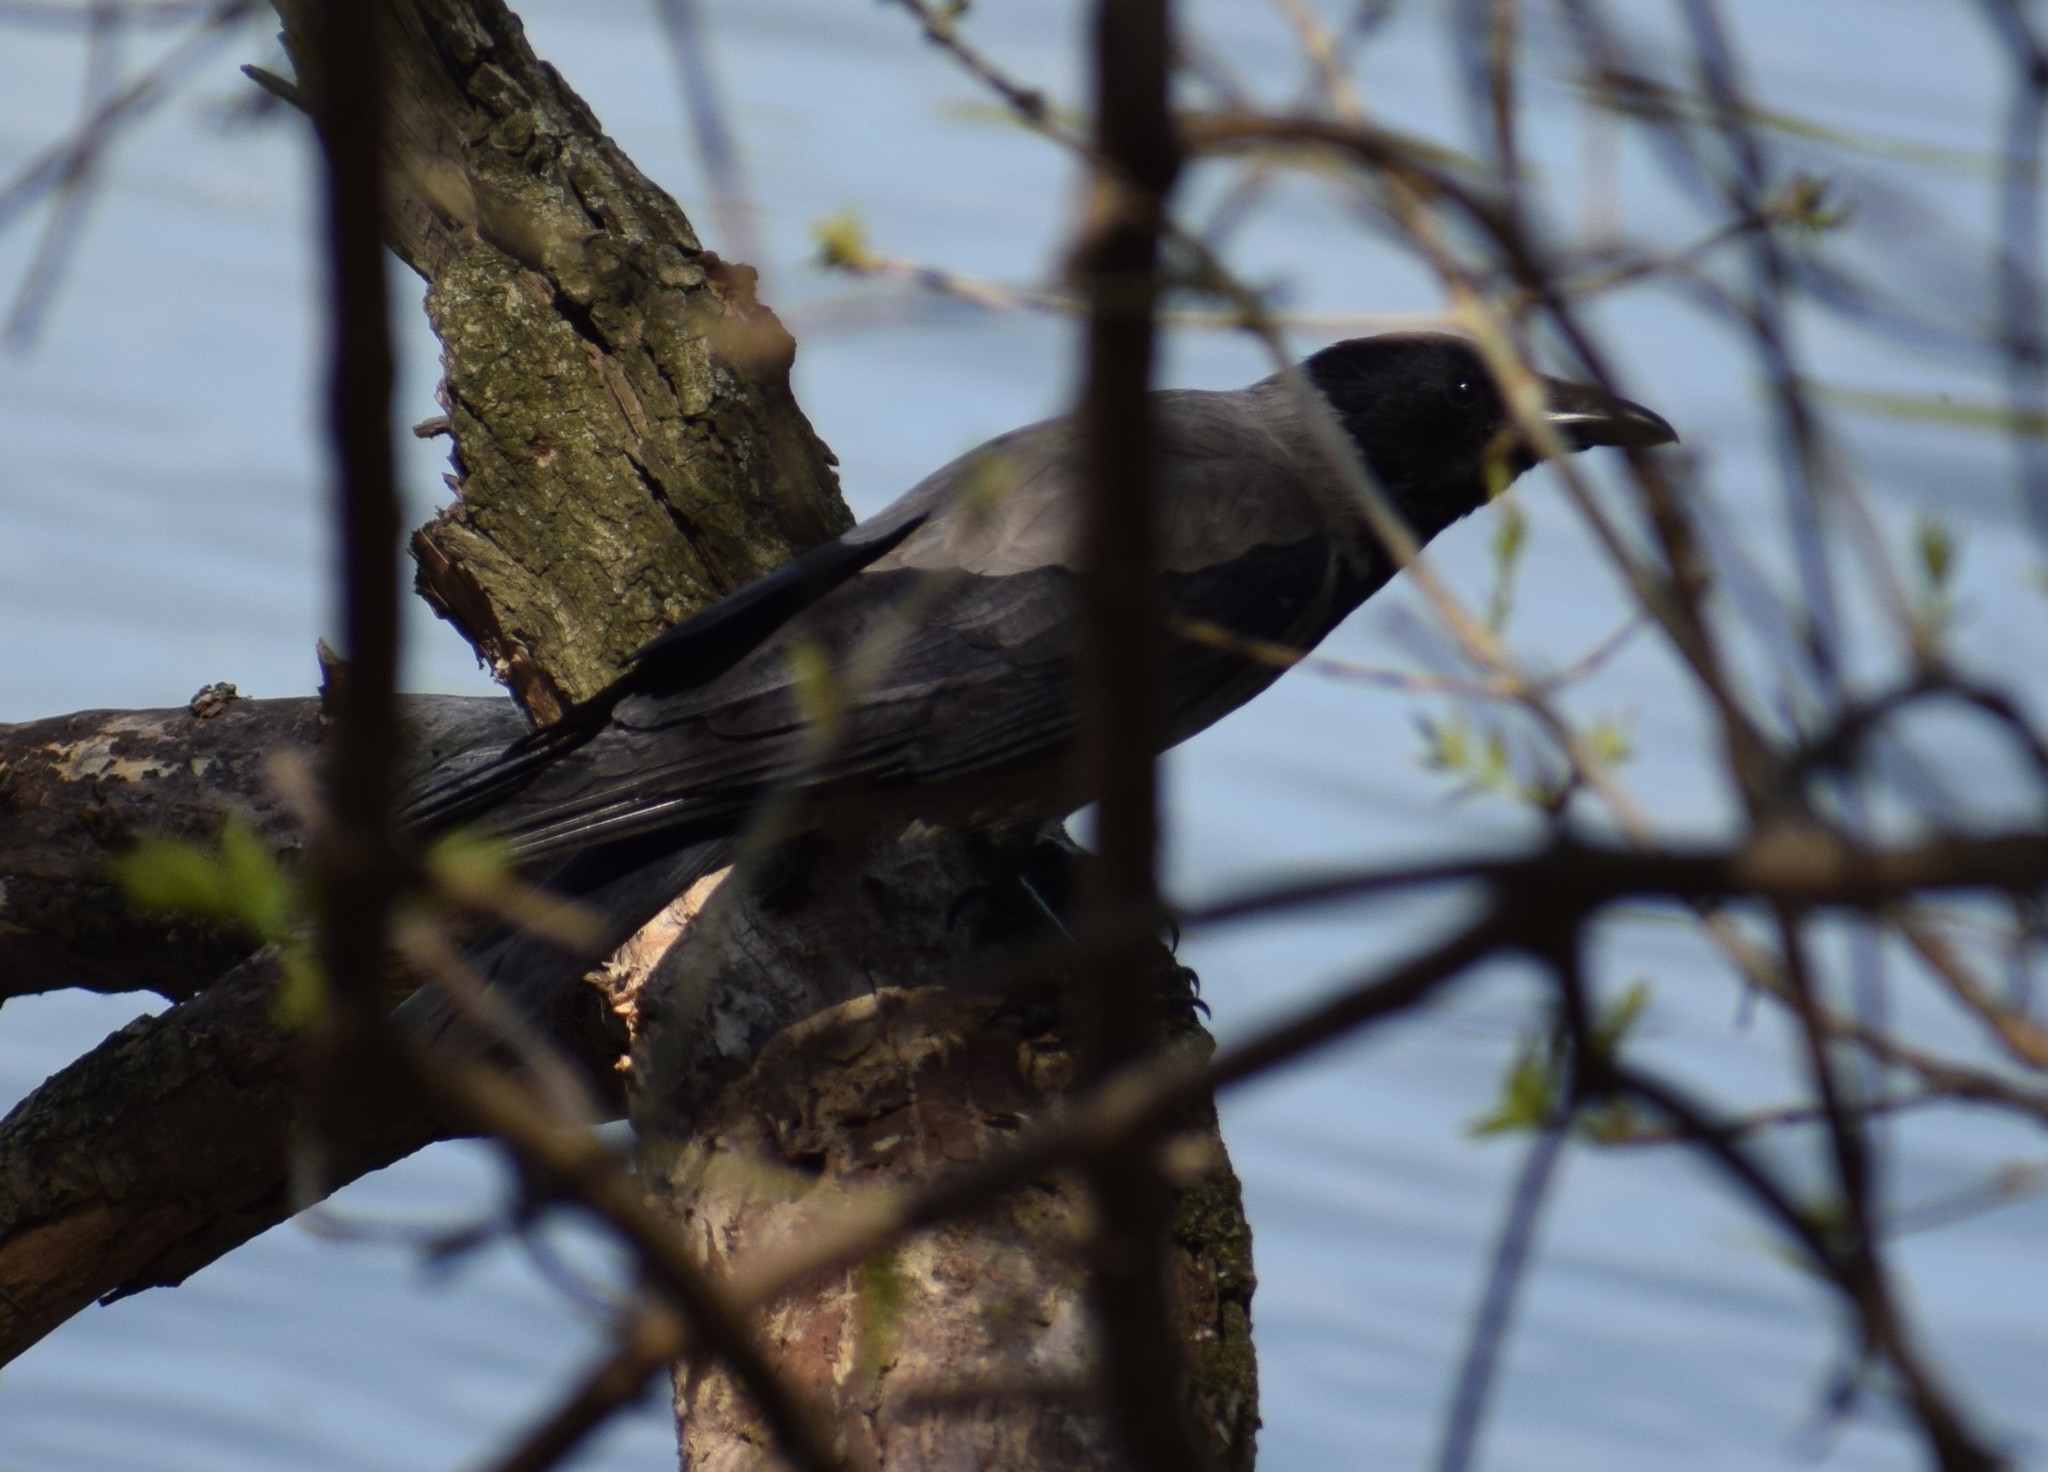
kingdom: Animalia
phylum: Chordata
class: Aves
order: Passeriformes
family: Corvidae
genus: Corvus
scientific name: Corvus cornix
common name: Hooded crow
